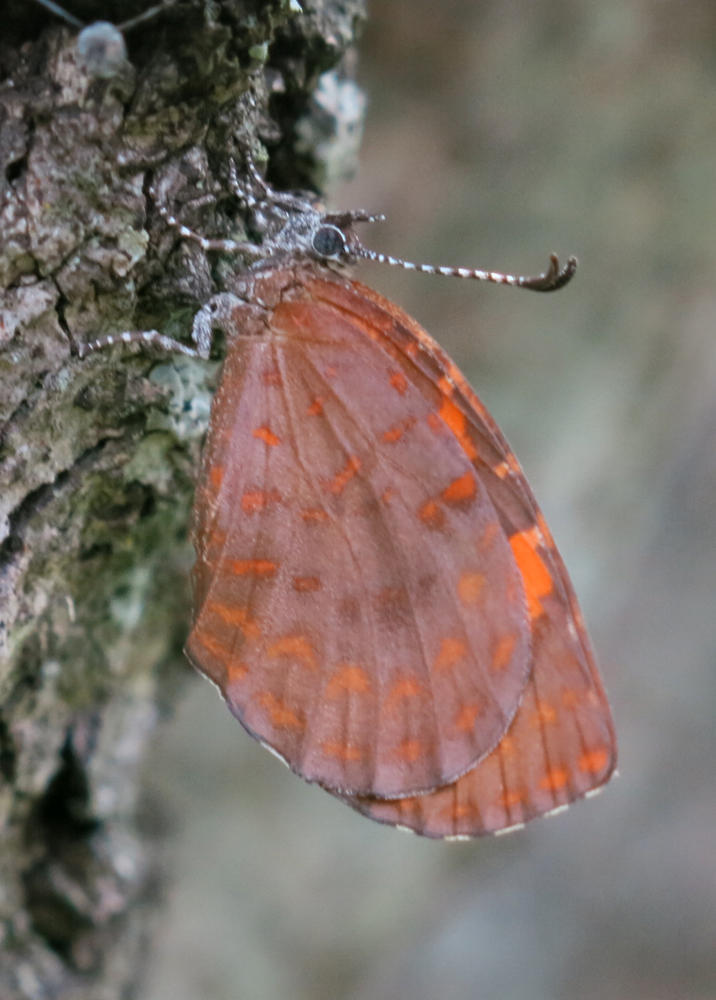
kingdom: Animalia
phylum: Arthropoda
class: Insecta
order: Lepidoptera
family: Lycaenidae
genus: Baliochila
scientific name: Baliochila aslanga
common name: Natal buff
